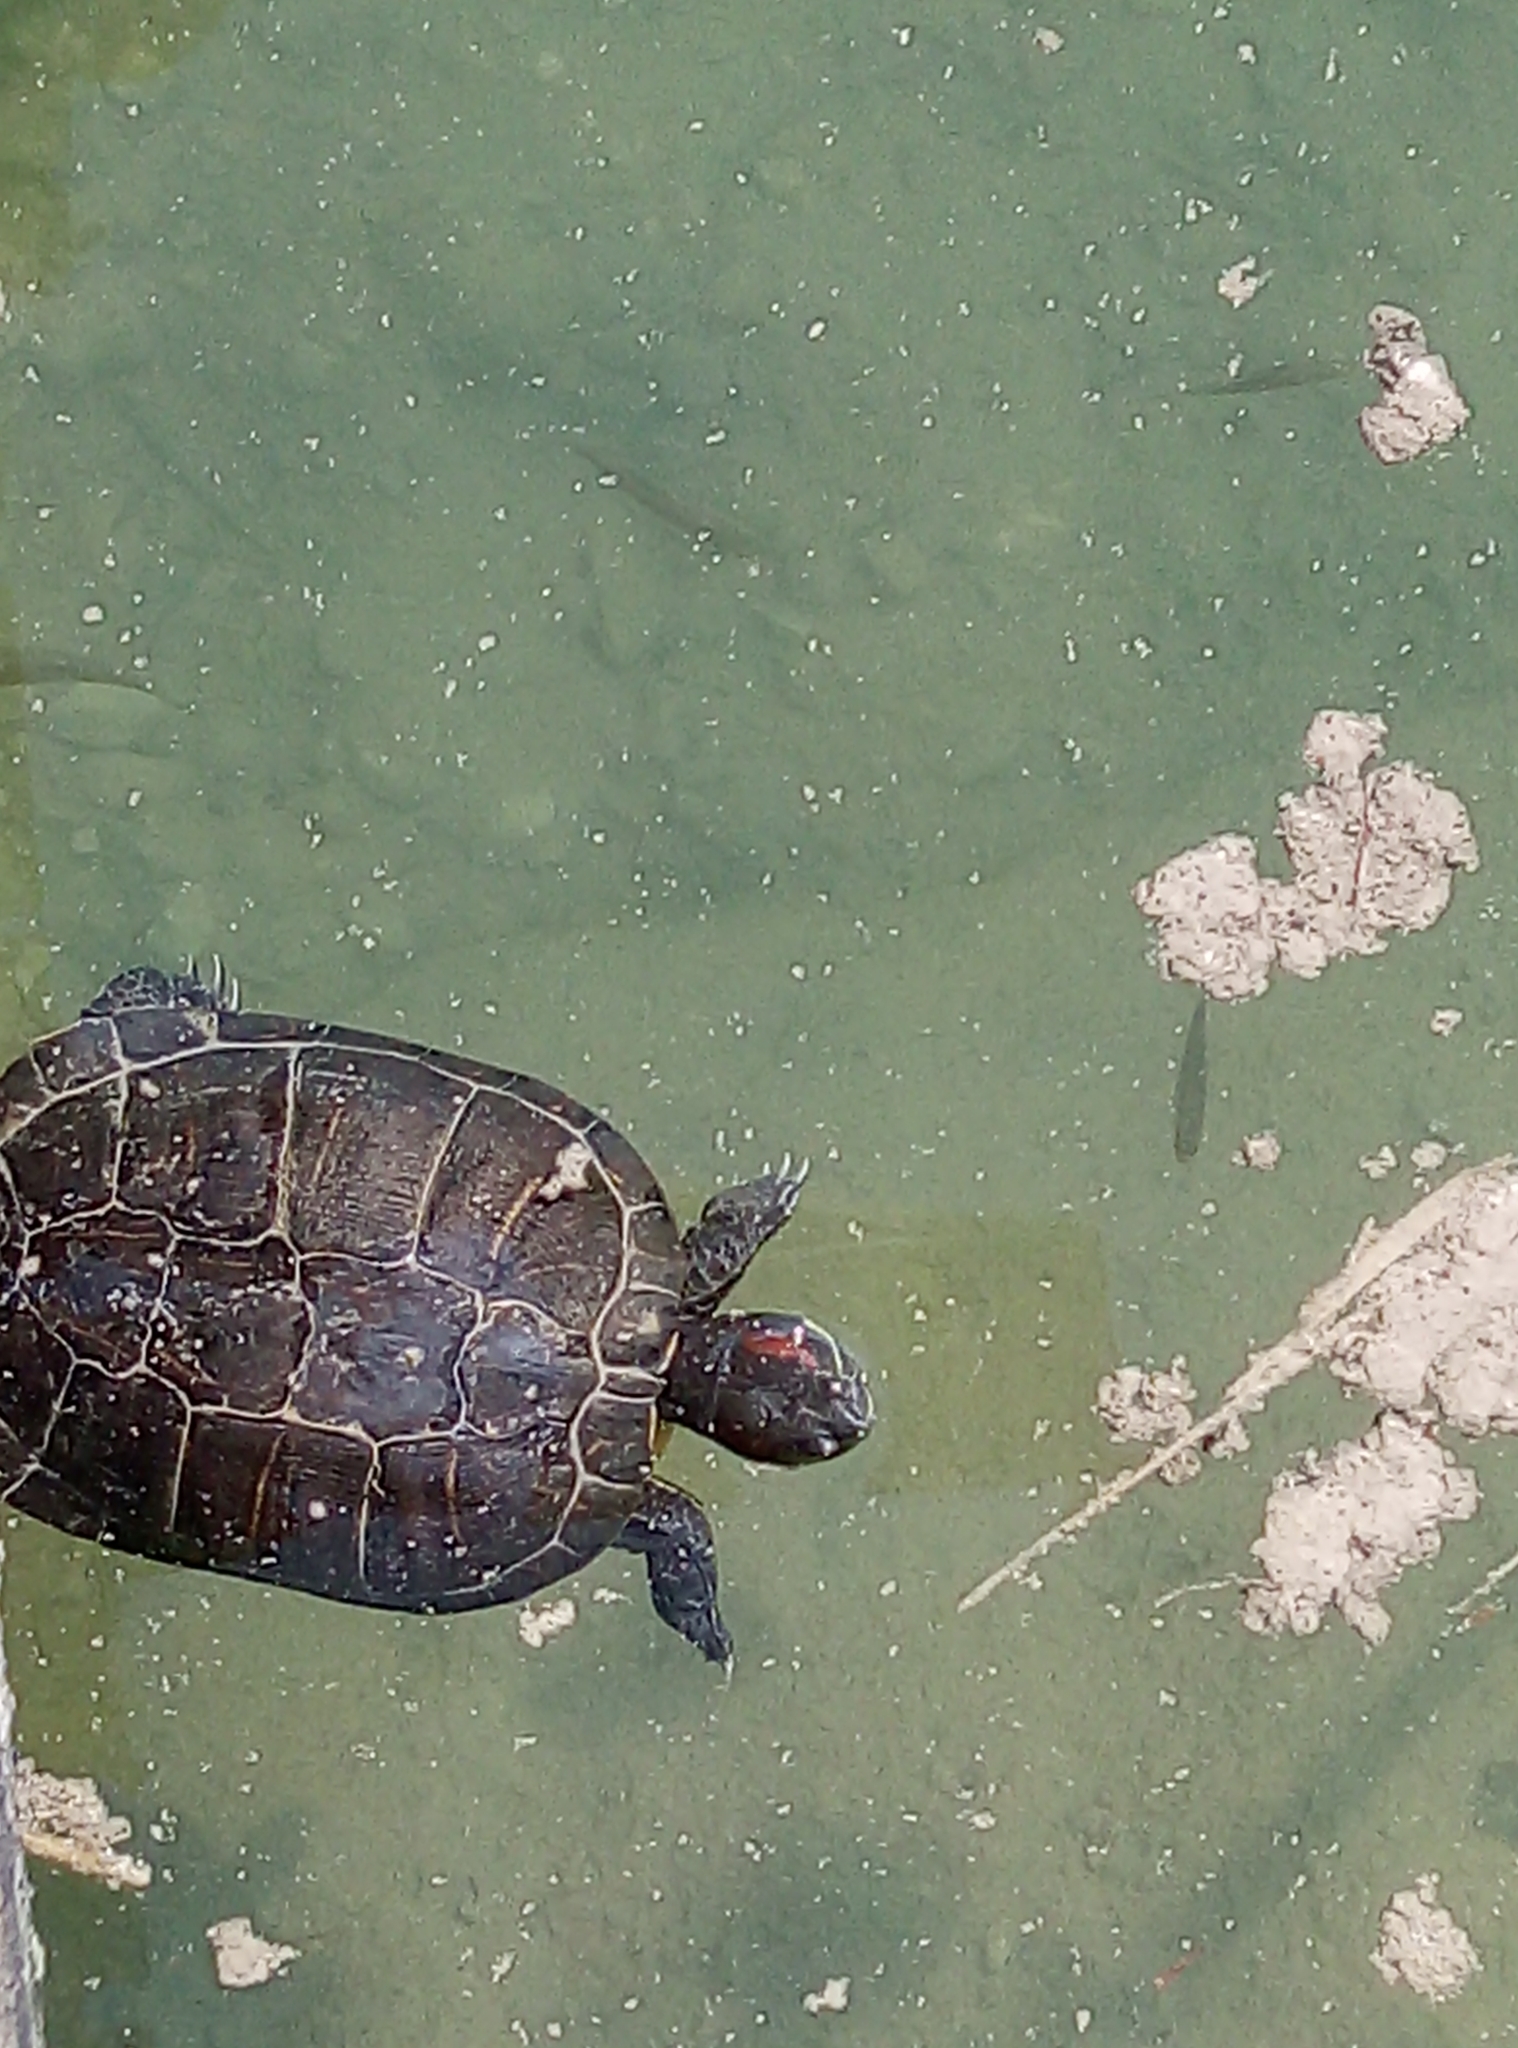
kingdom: Animalia
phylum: Chordata
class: Testudines
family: Emydidae
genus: Trachemys
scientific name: Trachemys scripta
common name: Slider
